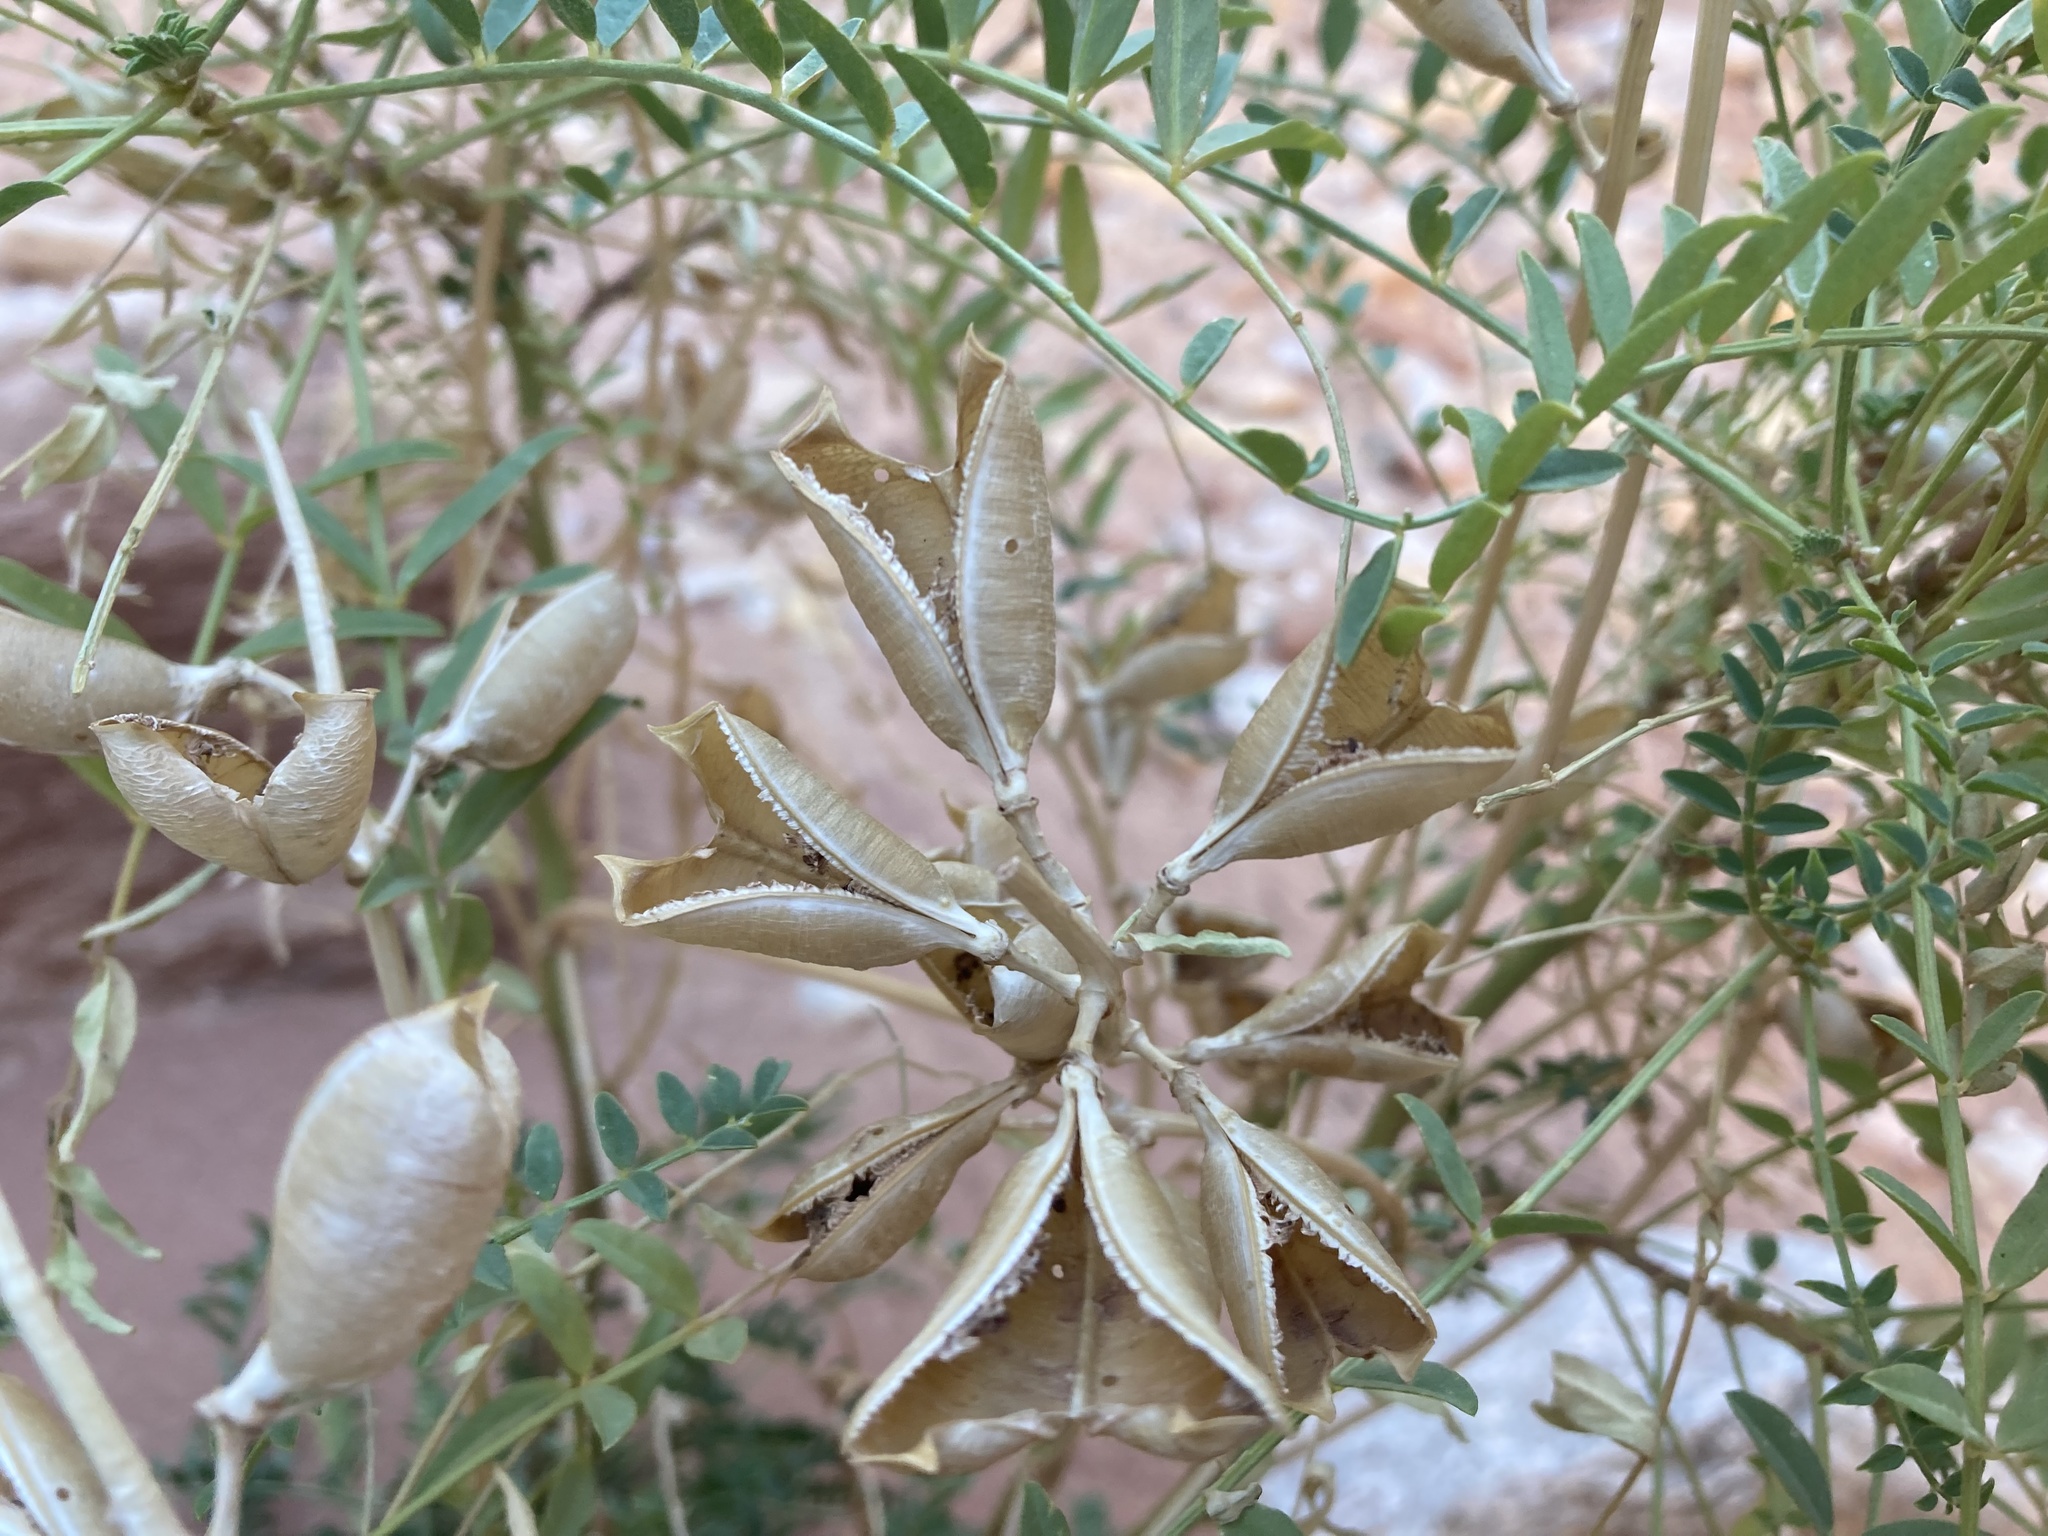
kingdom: Plantae
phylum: Tracheophyta
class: Magnoliopsida
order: Fabales
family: Fabaceae
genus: Astragalus
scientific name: Astragalus praelongus
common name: Stinking milk-vetch
